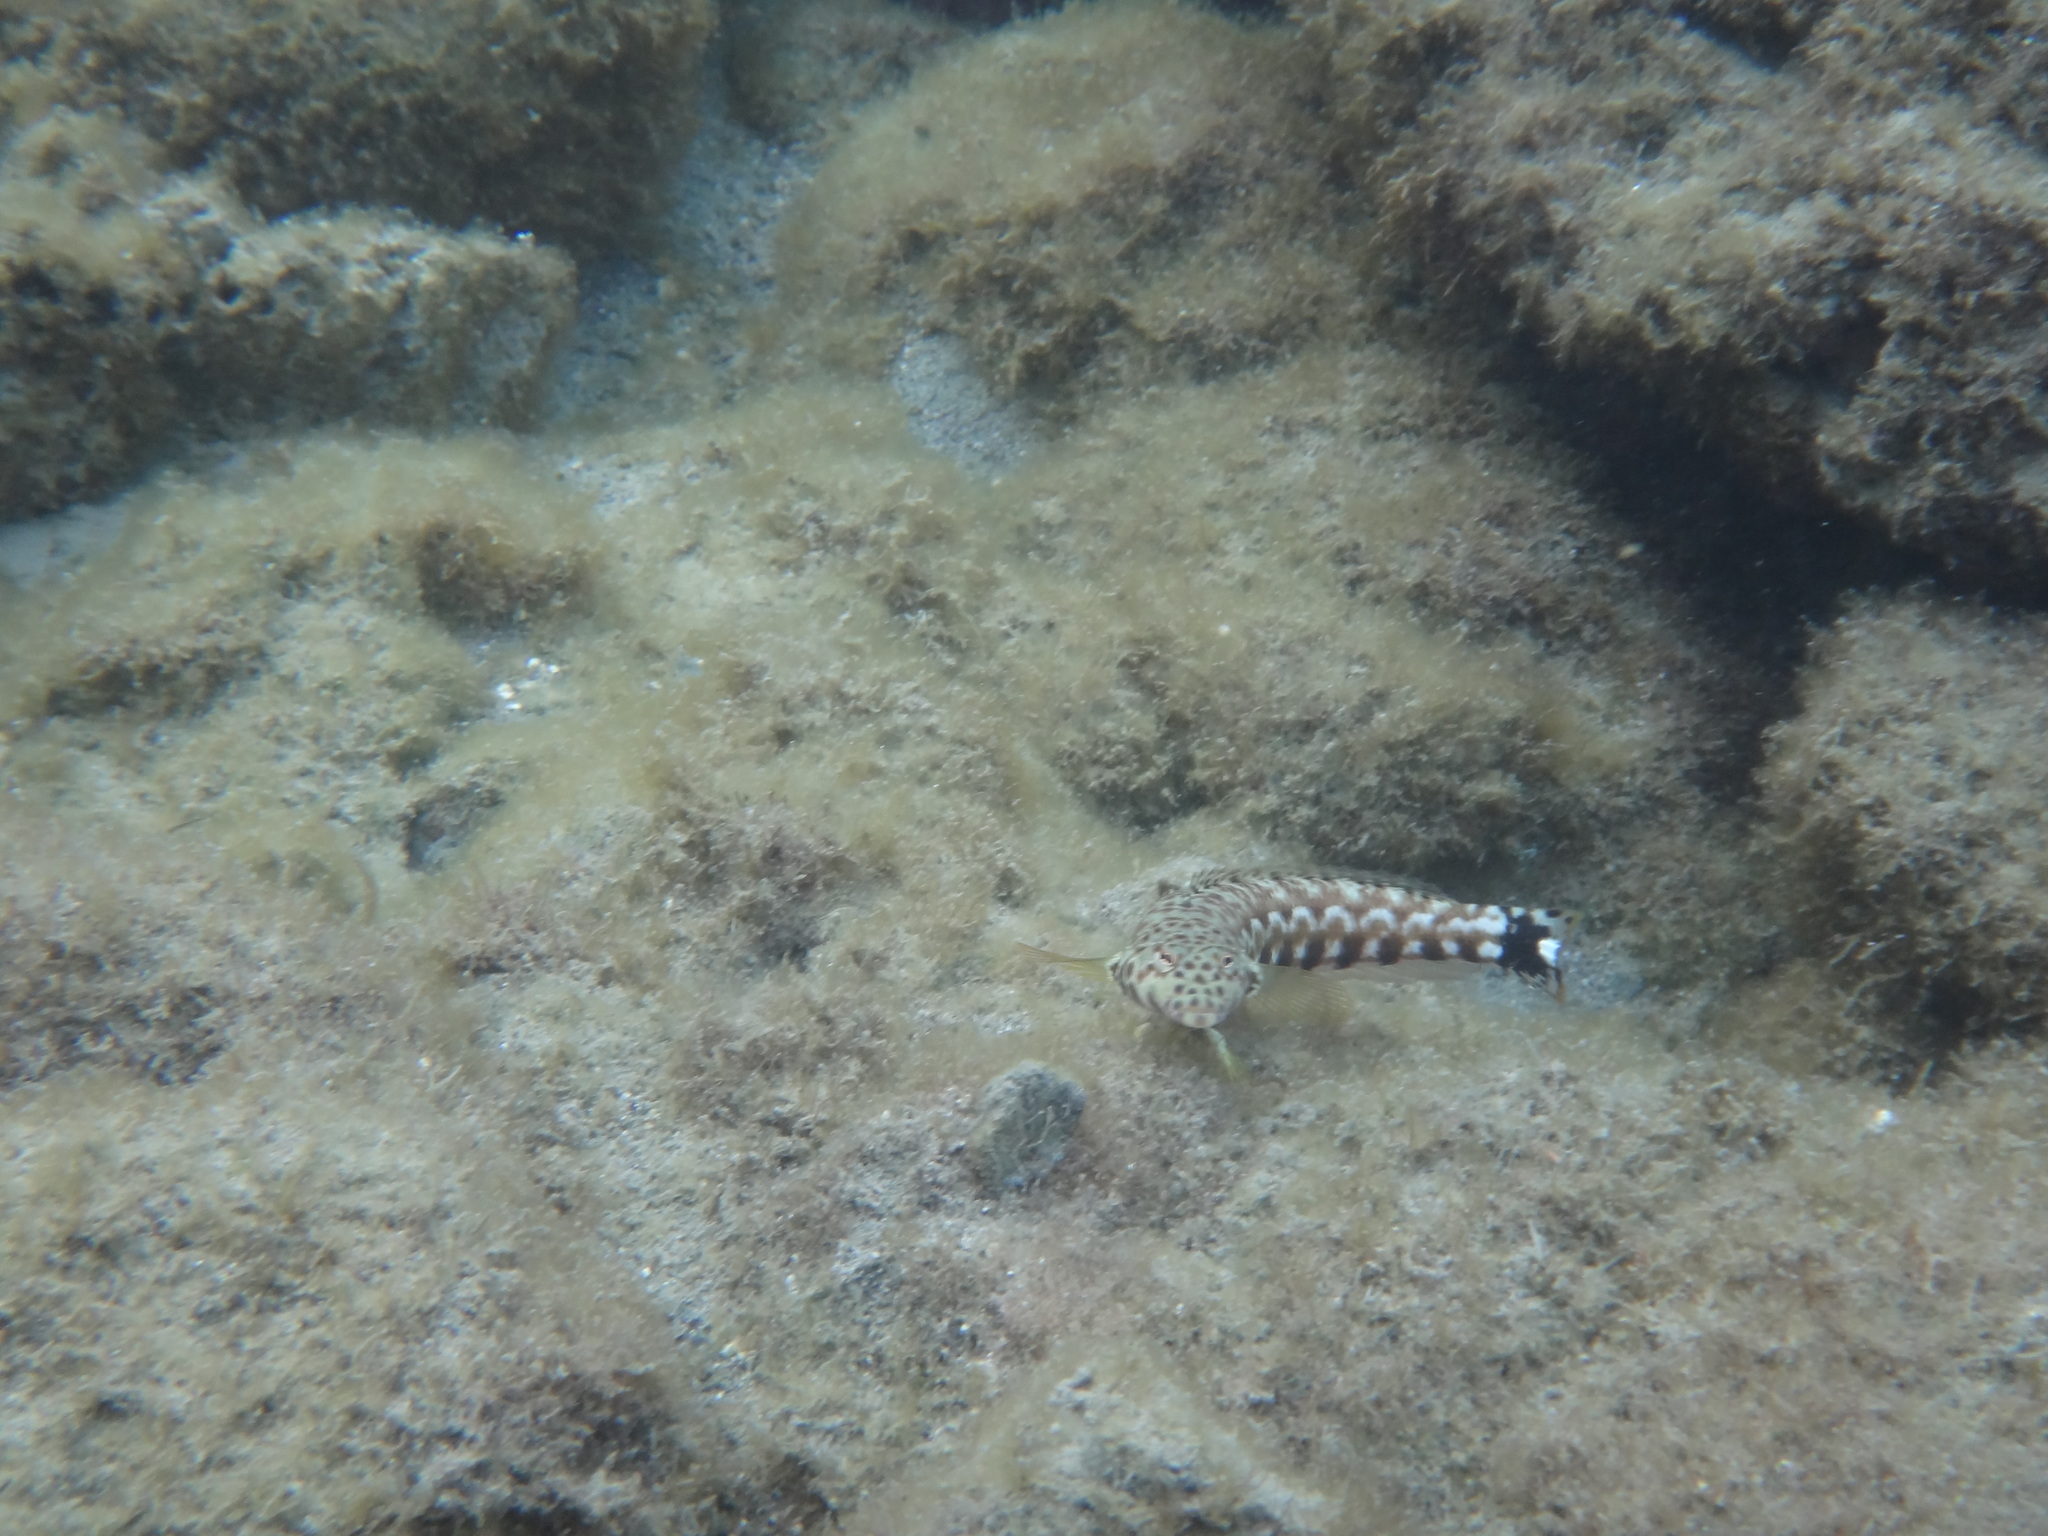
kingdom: Animalia
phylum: Chordata
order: Perciformes
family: Pinguipedidae
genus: Parapercis
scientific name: Parapercis millepunctata
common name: Black-dotted sandperch
